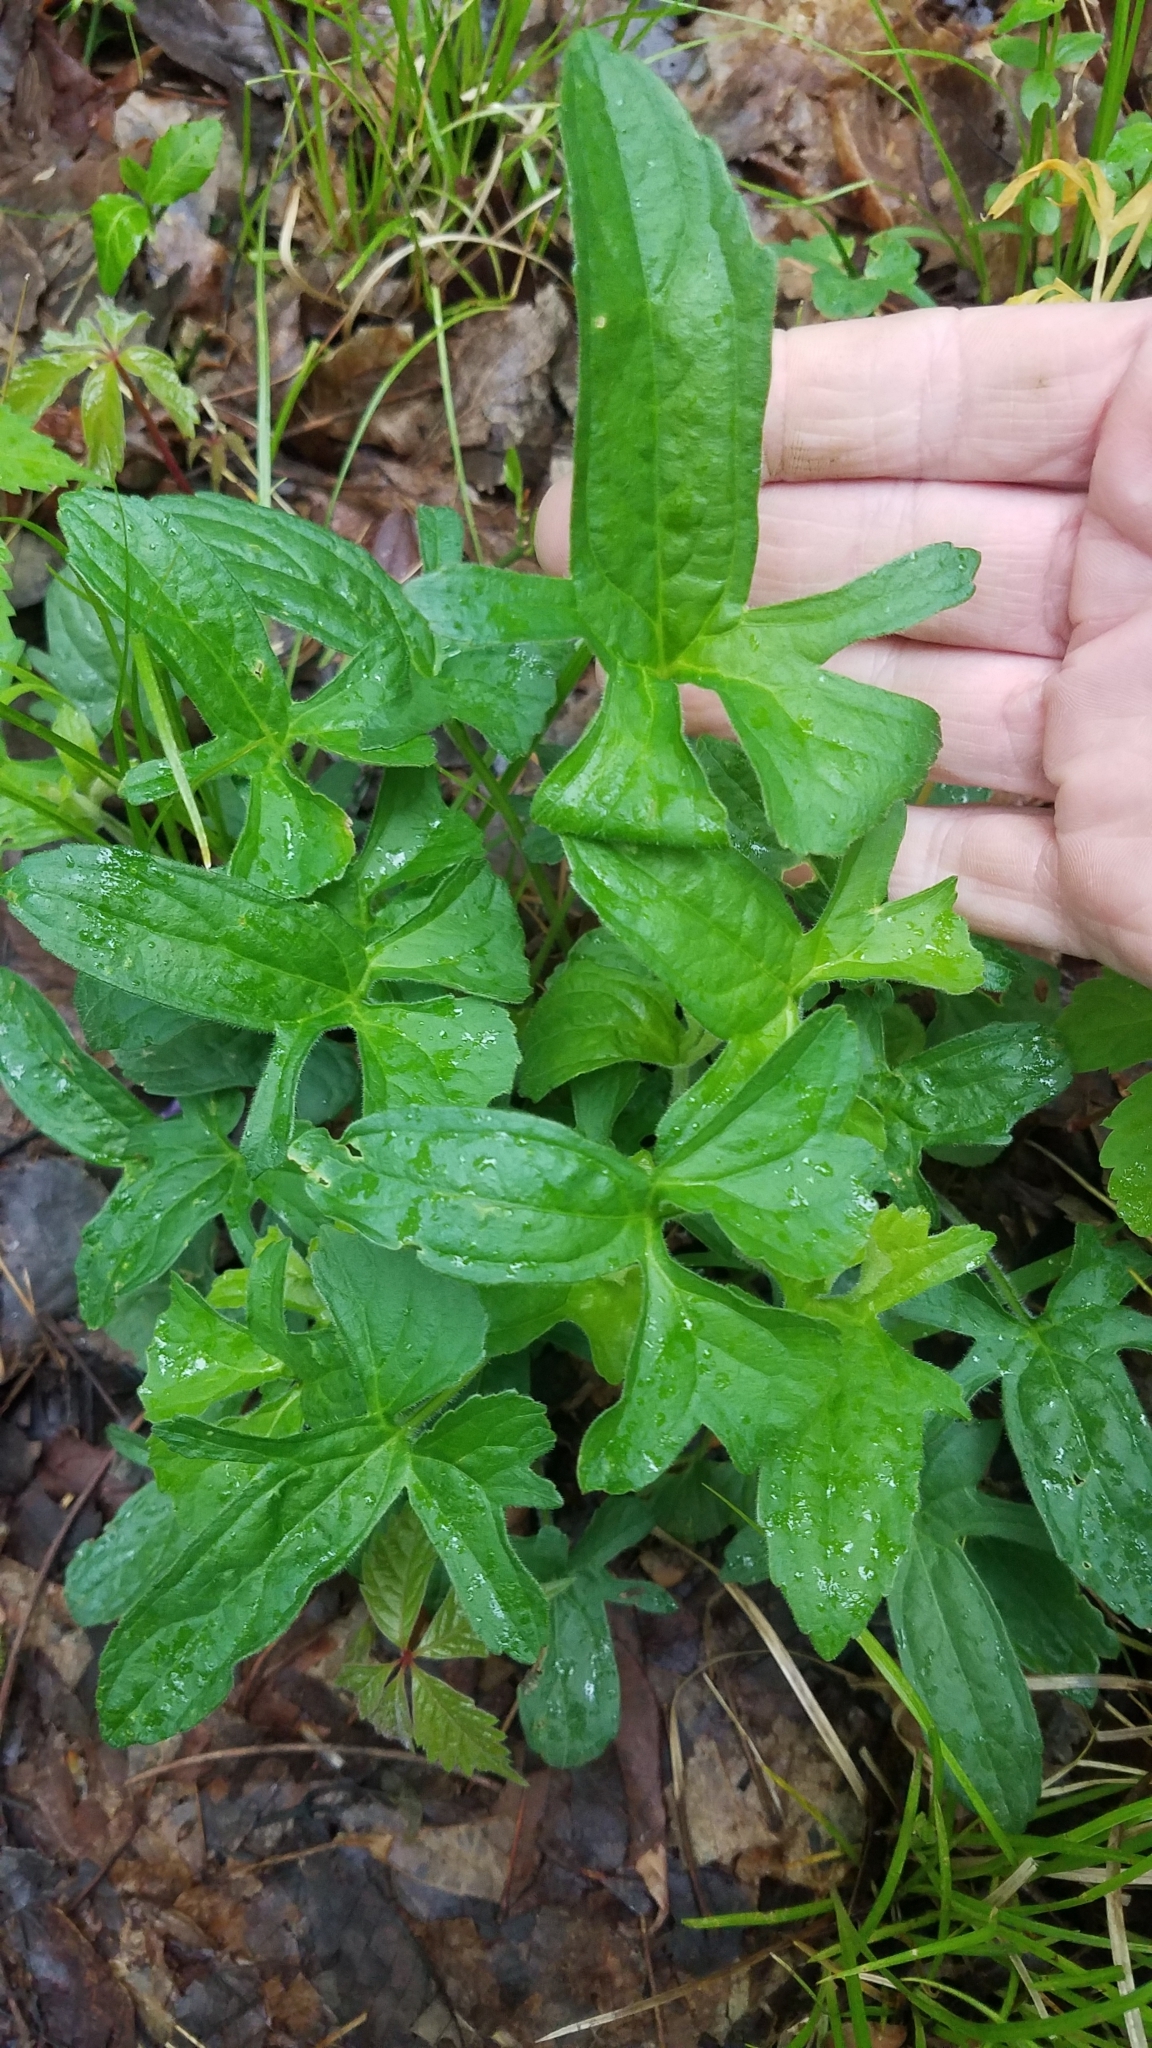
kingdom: Plantae
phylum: Tracheophyta
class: Magnoliopsida
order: Malpighiales
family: Violaceae
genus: Viola
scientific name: Viola palmata
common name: Early blue violet
